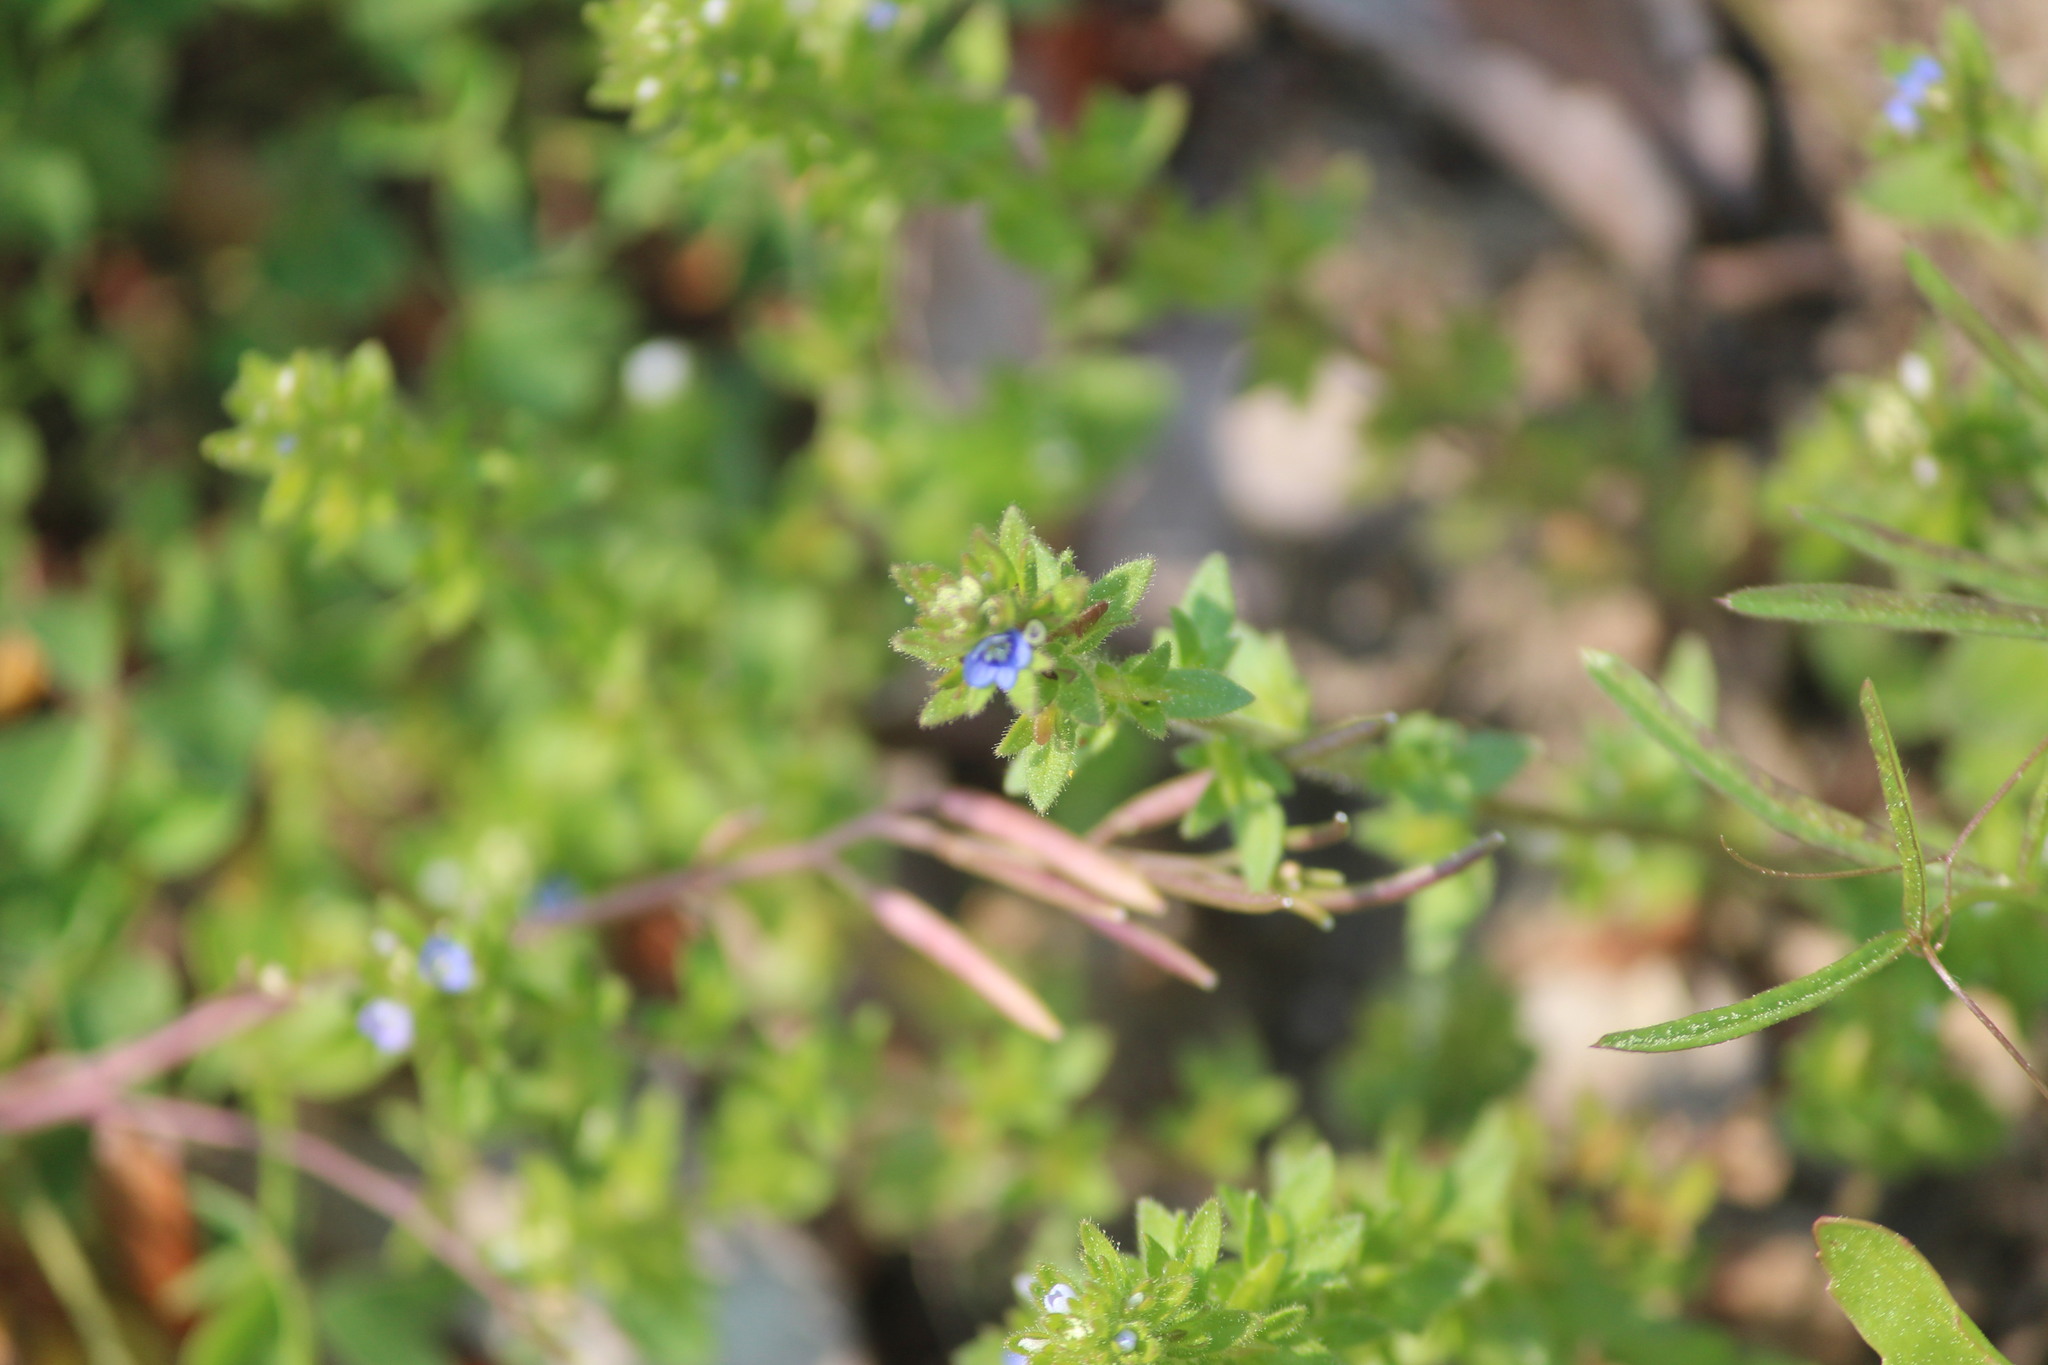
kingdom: Plantae
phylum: Tracheophyta
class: Magnoliopsida
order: Lamiales
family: Plantaginaceae
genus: Veronica
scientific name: Veronica arvensis
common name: Corn speedwell
